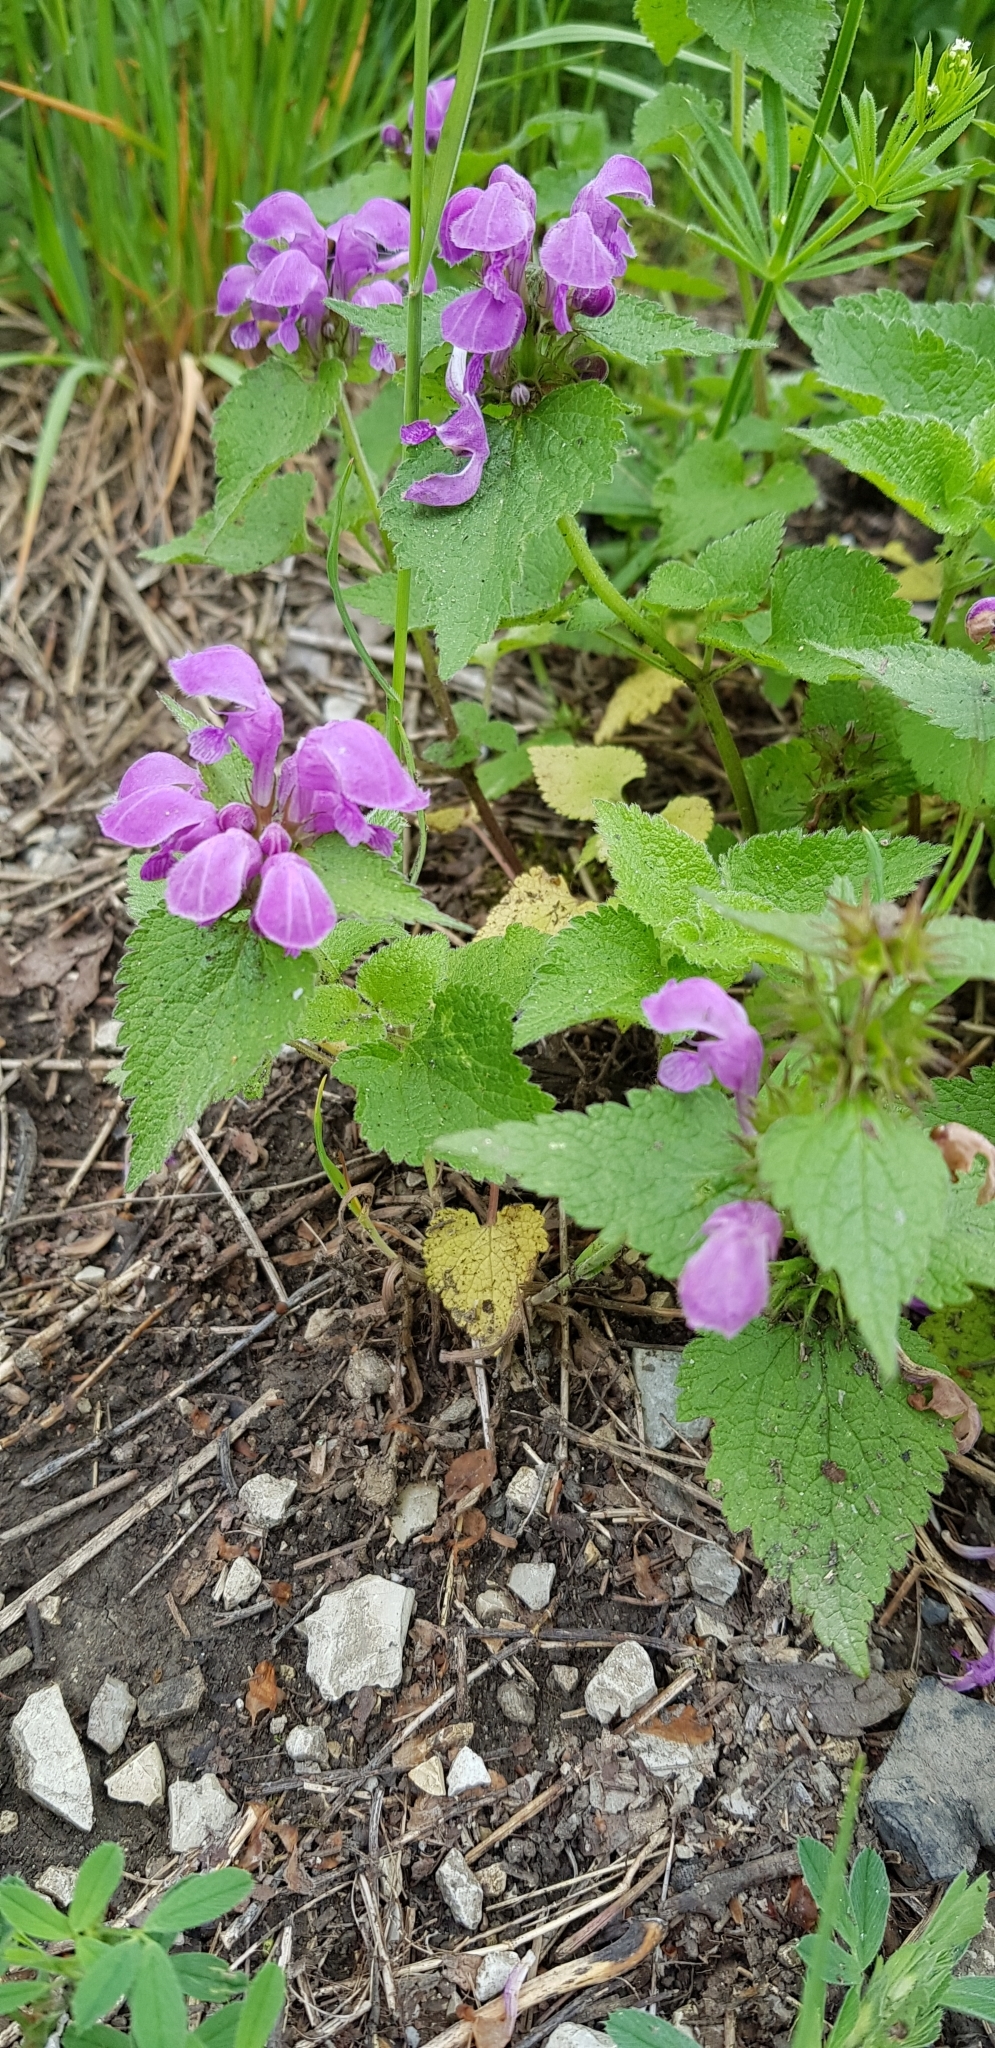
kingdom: Plantae
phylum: Tracheophyta
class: Magnoliopsida
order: Lamiales
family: Lamiaceae
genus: Lamium
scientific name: Lamium maculatum
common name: Spotted dead-nettle
